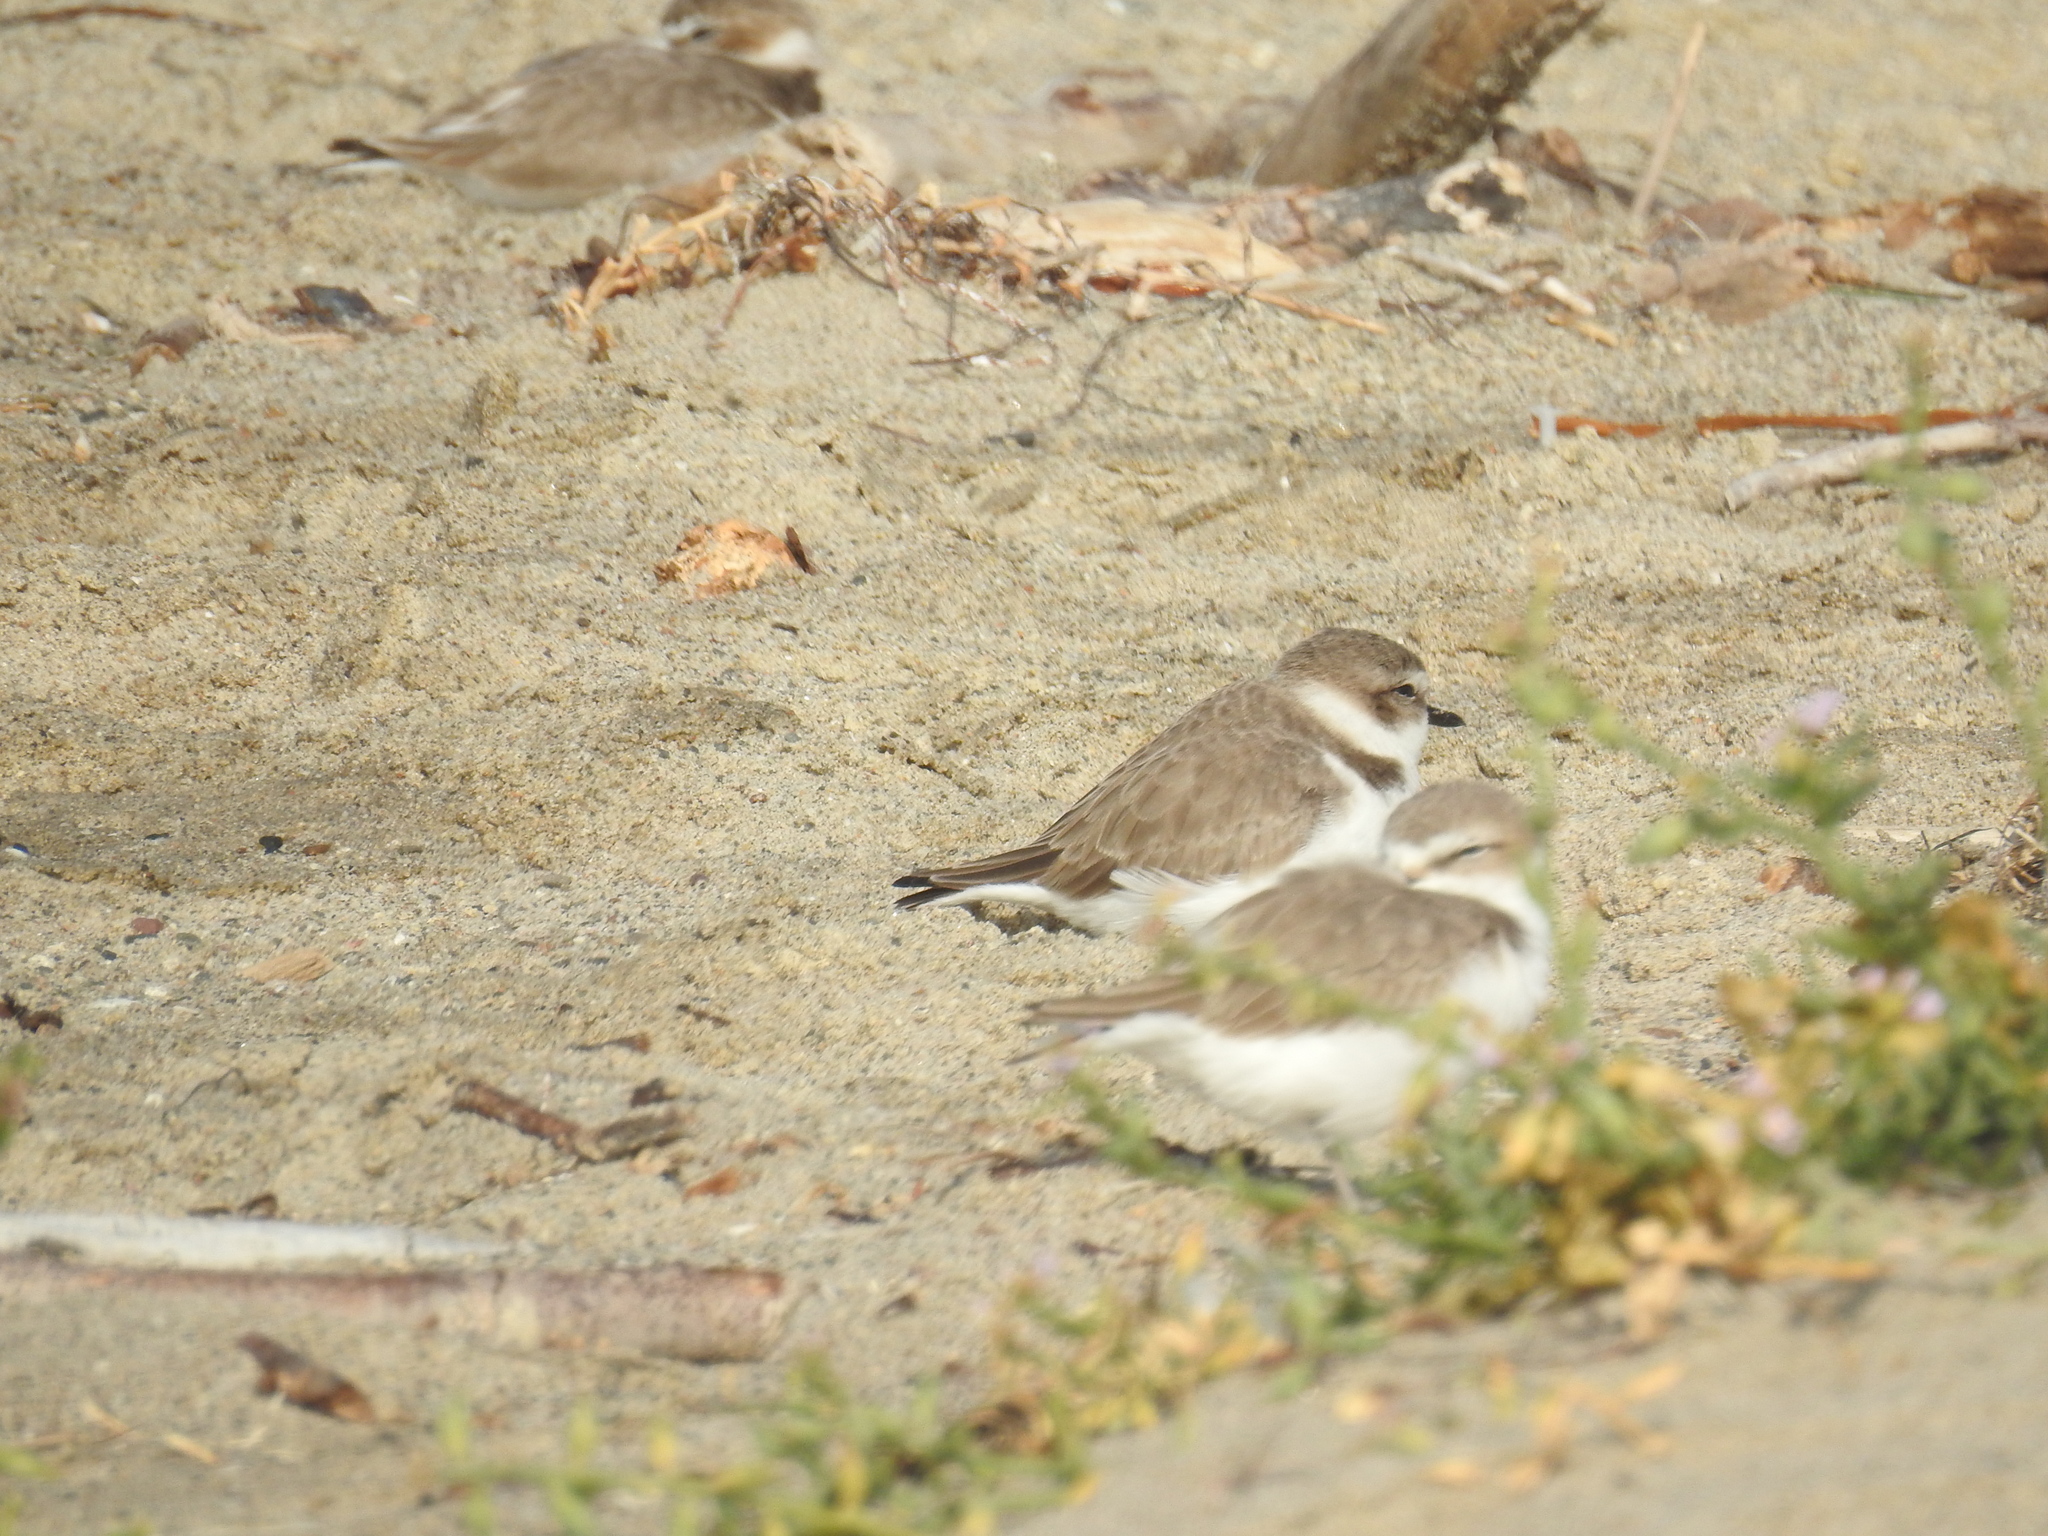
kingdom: Animalia
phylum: Chordata
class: Aves
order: Charadriiformes
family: Charadriidae
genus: Anarhynchus
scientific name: Anarhynchus
